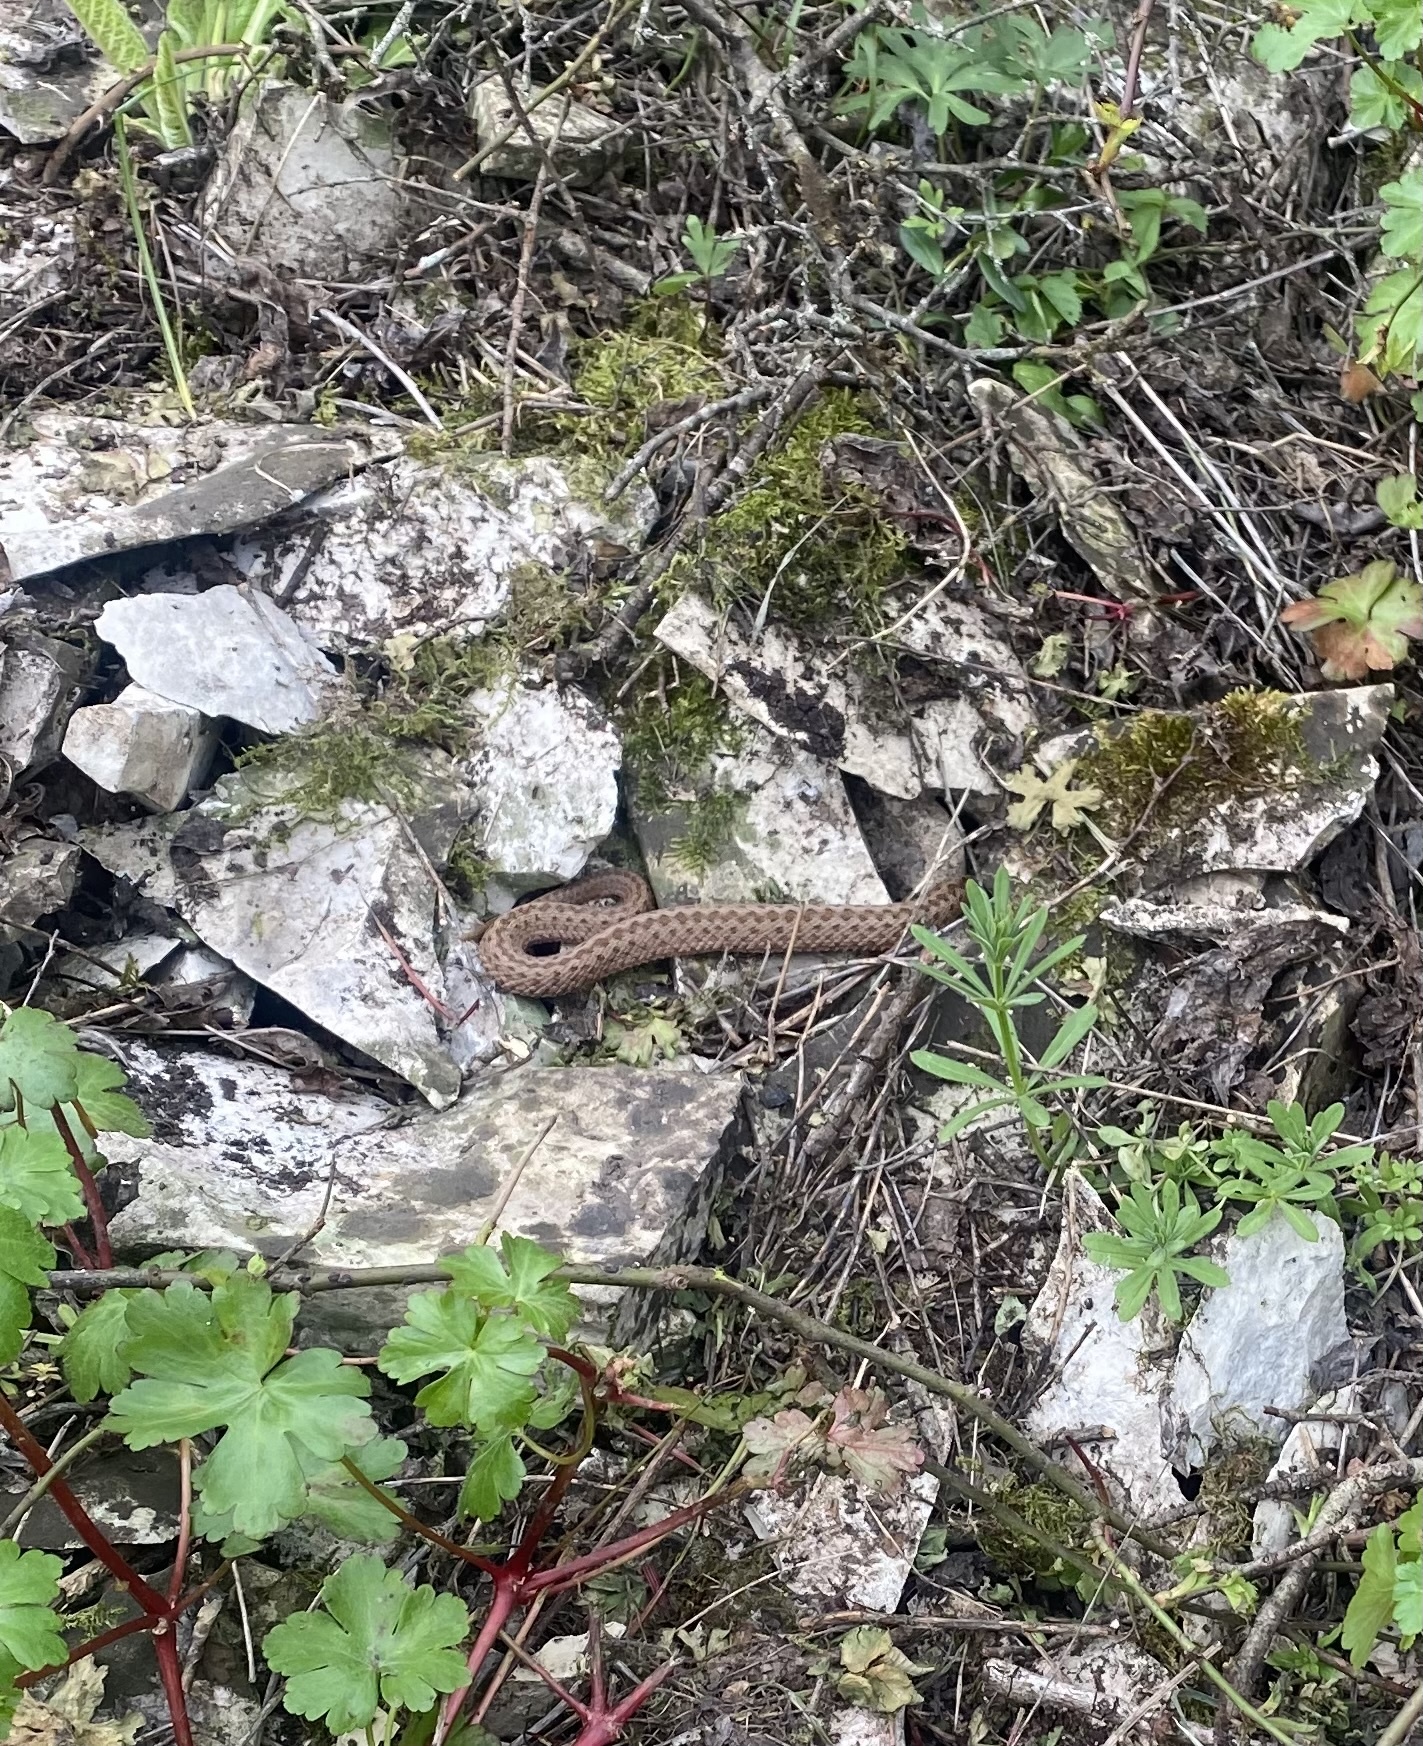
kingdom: Animalia
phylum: Chordata
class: Squamata
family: Viperidae
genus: Vipera
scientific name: Vipera renardi
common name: Eastern steppe viper
